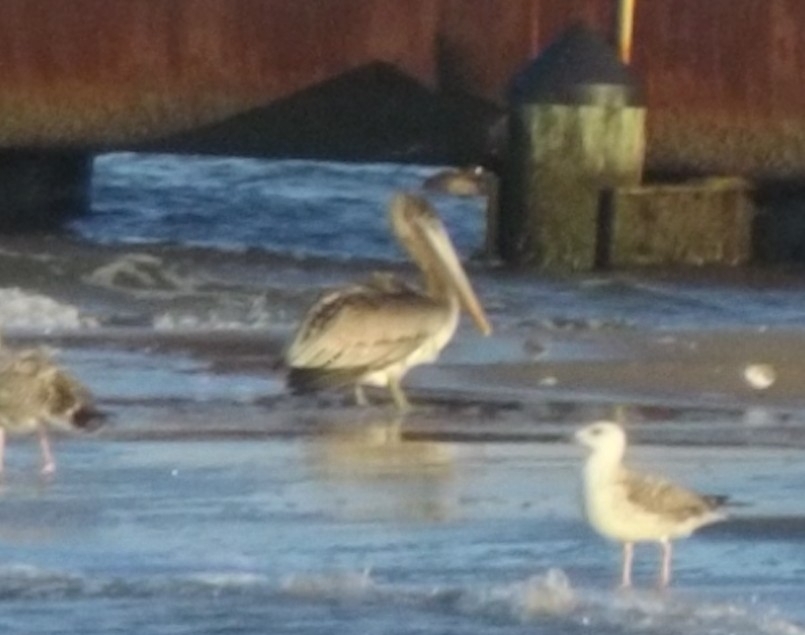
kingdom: Animalia
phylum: Chordata
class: Aves
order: Pelecaniformes
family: Pelecanidae
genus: Pelecanus
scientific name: Pelecanus occidentalis
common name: Brown pelican
